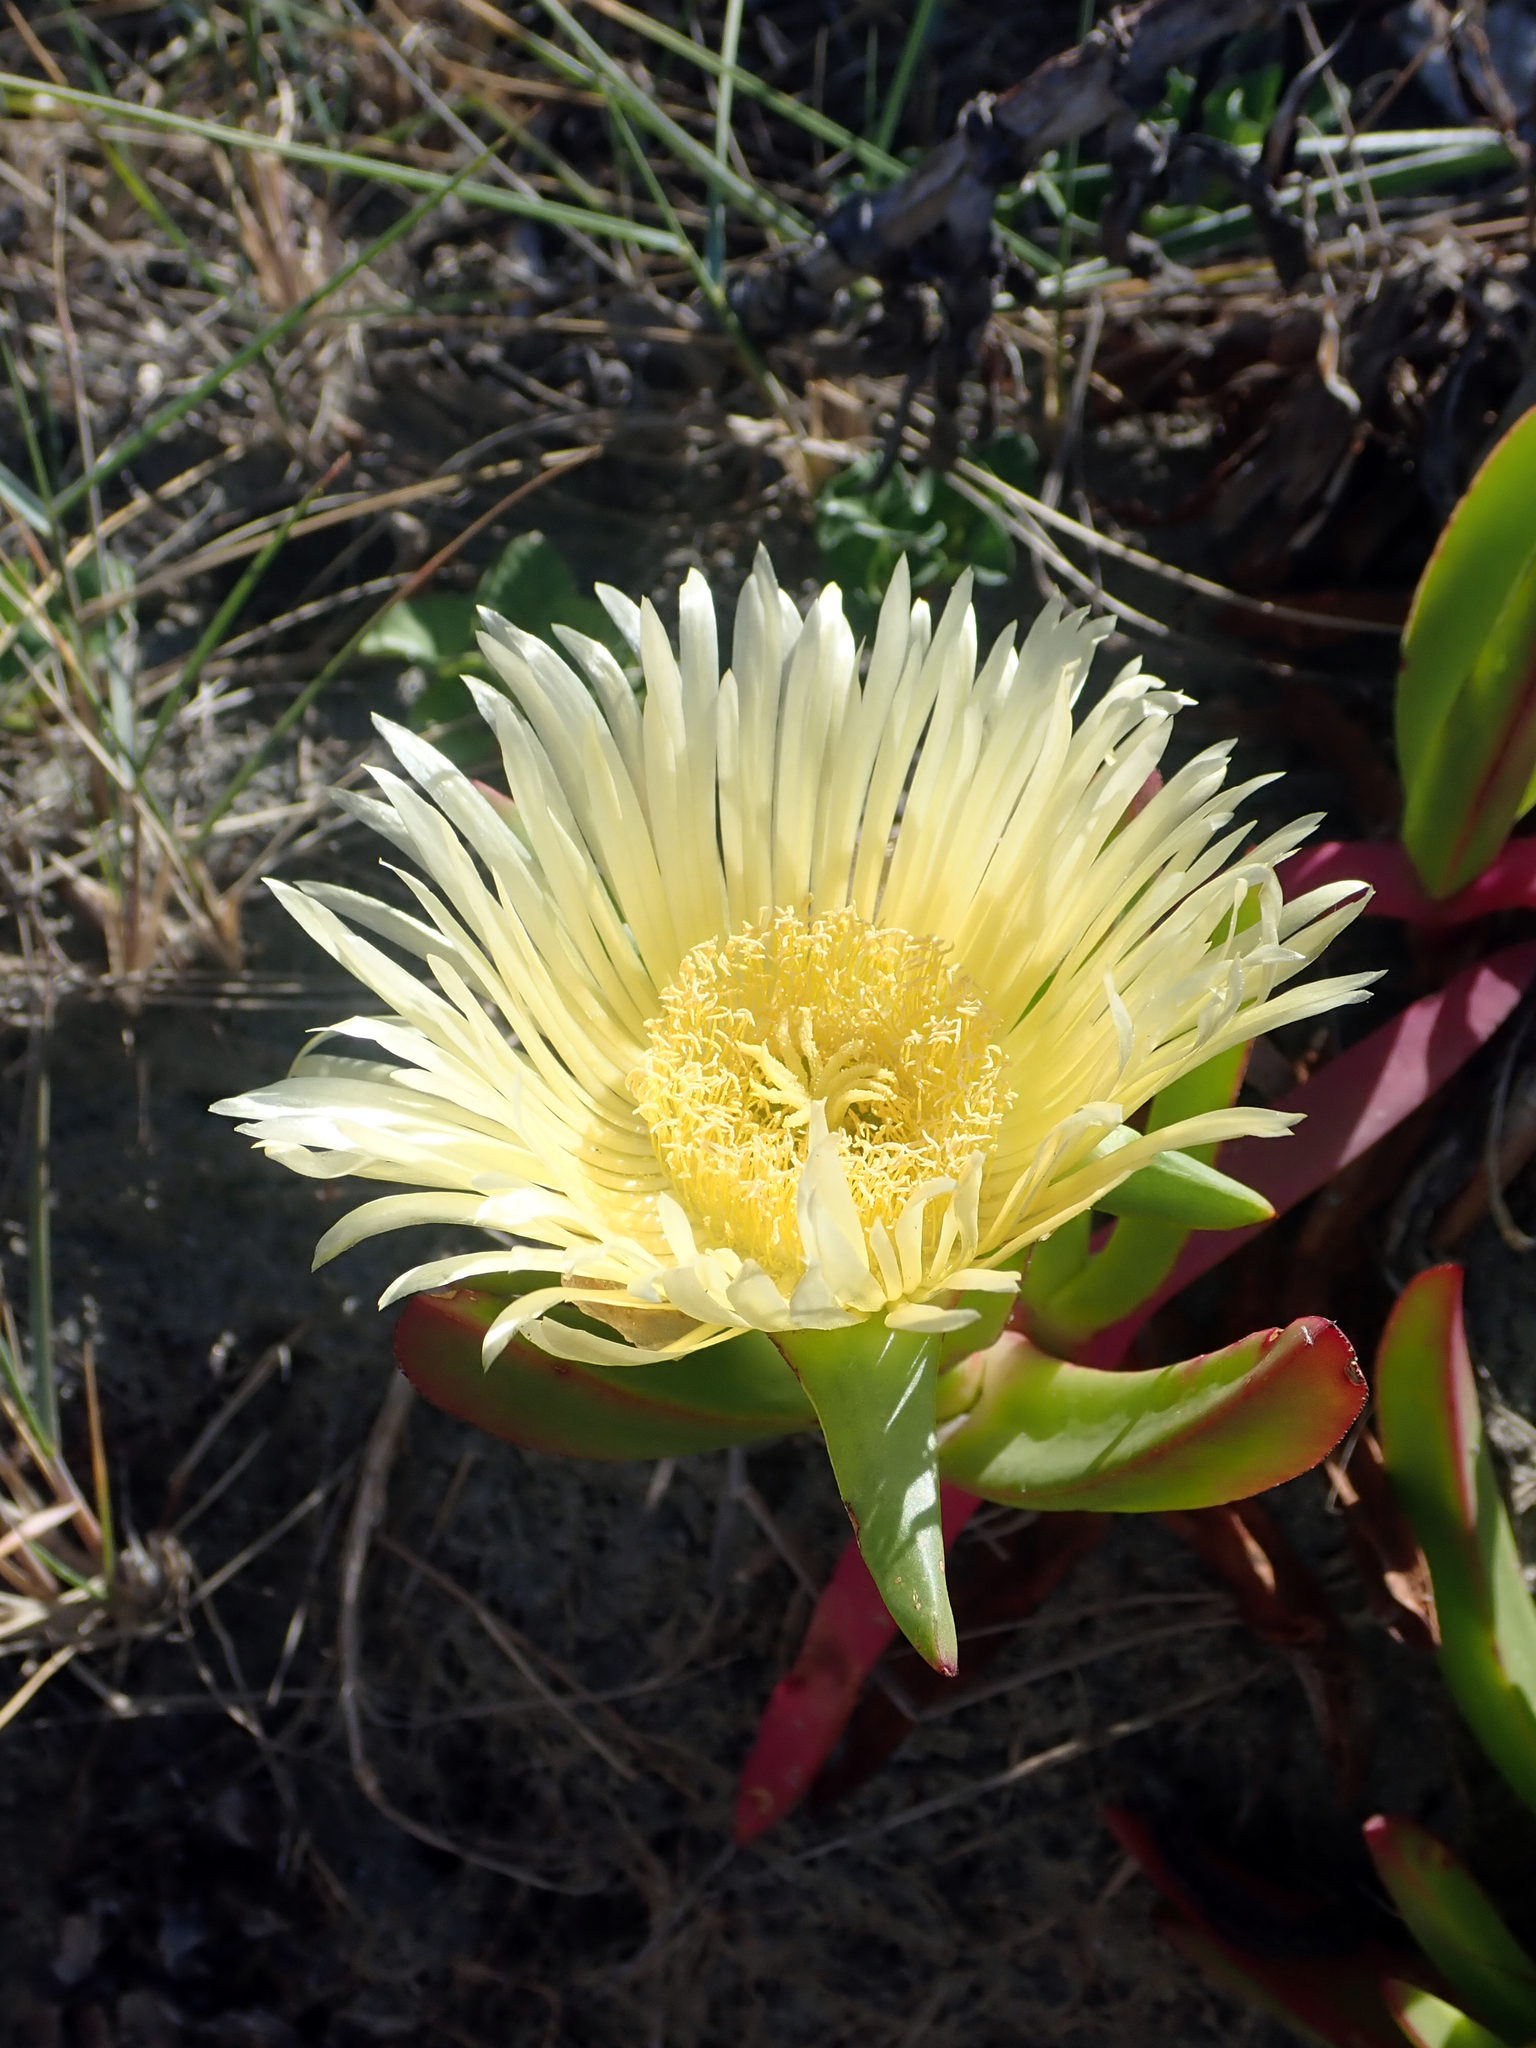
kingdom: Plantae
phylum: Tracheophyta
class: Magnoliopsida
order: Caryophyllales
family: Aizoaceae
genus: Carpobrotus
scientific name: Carpobrotus edulis
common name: Hottentot-fig
